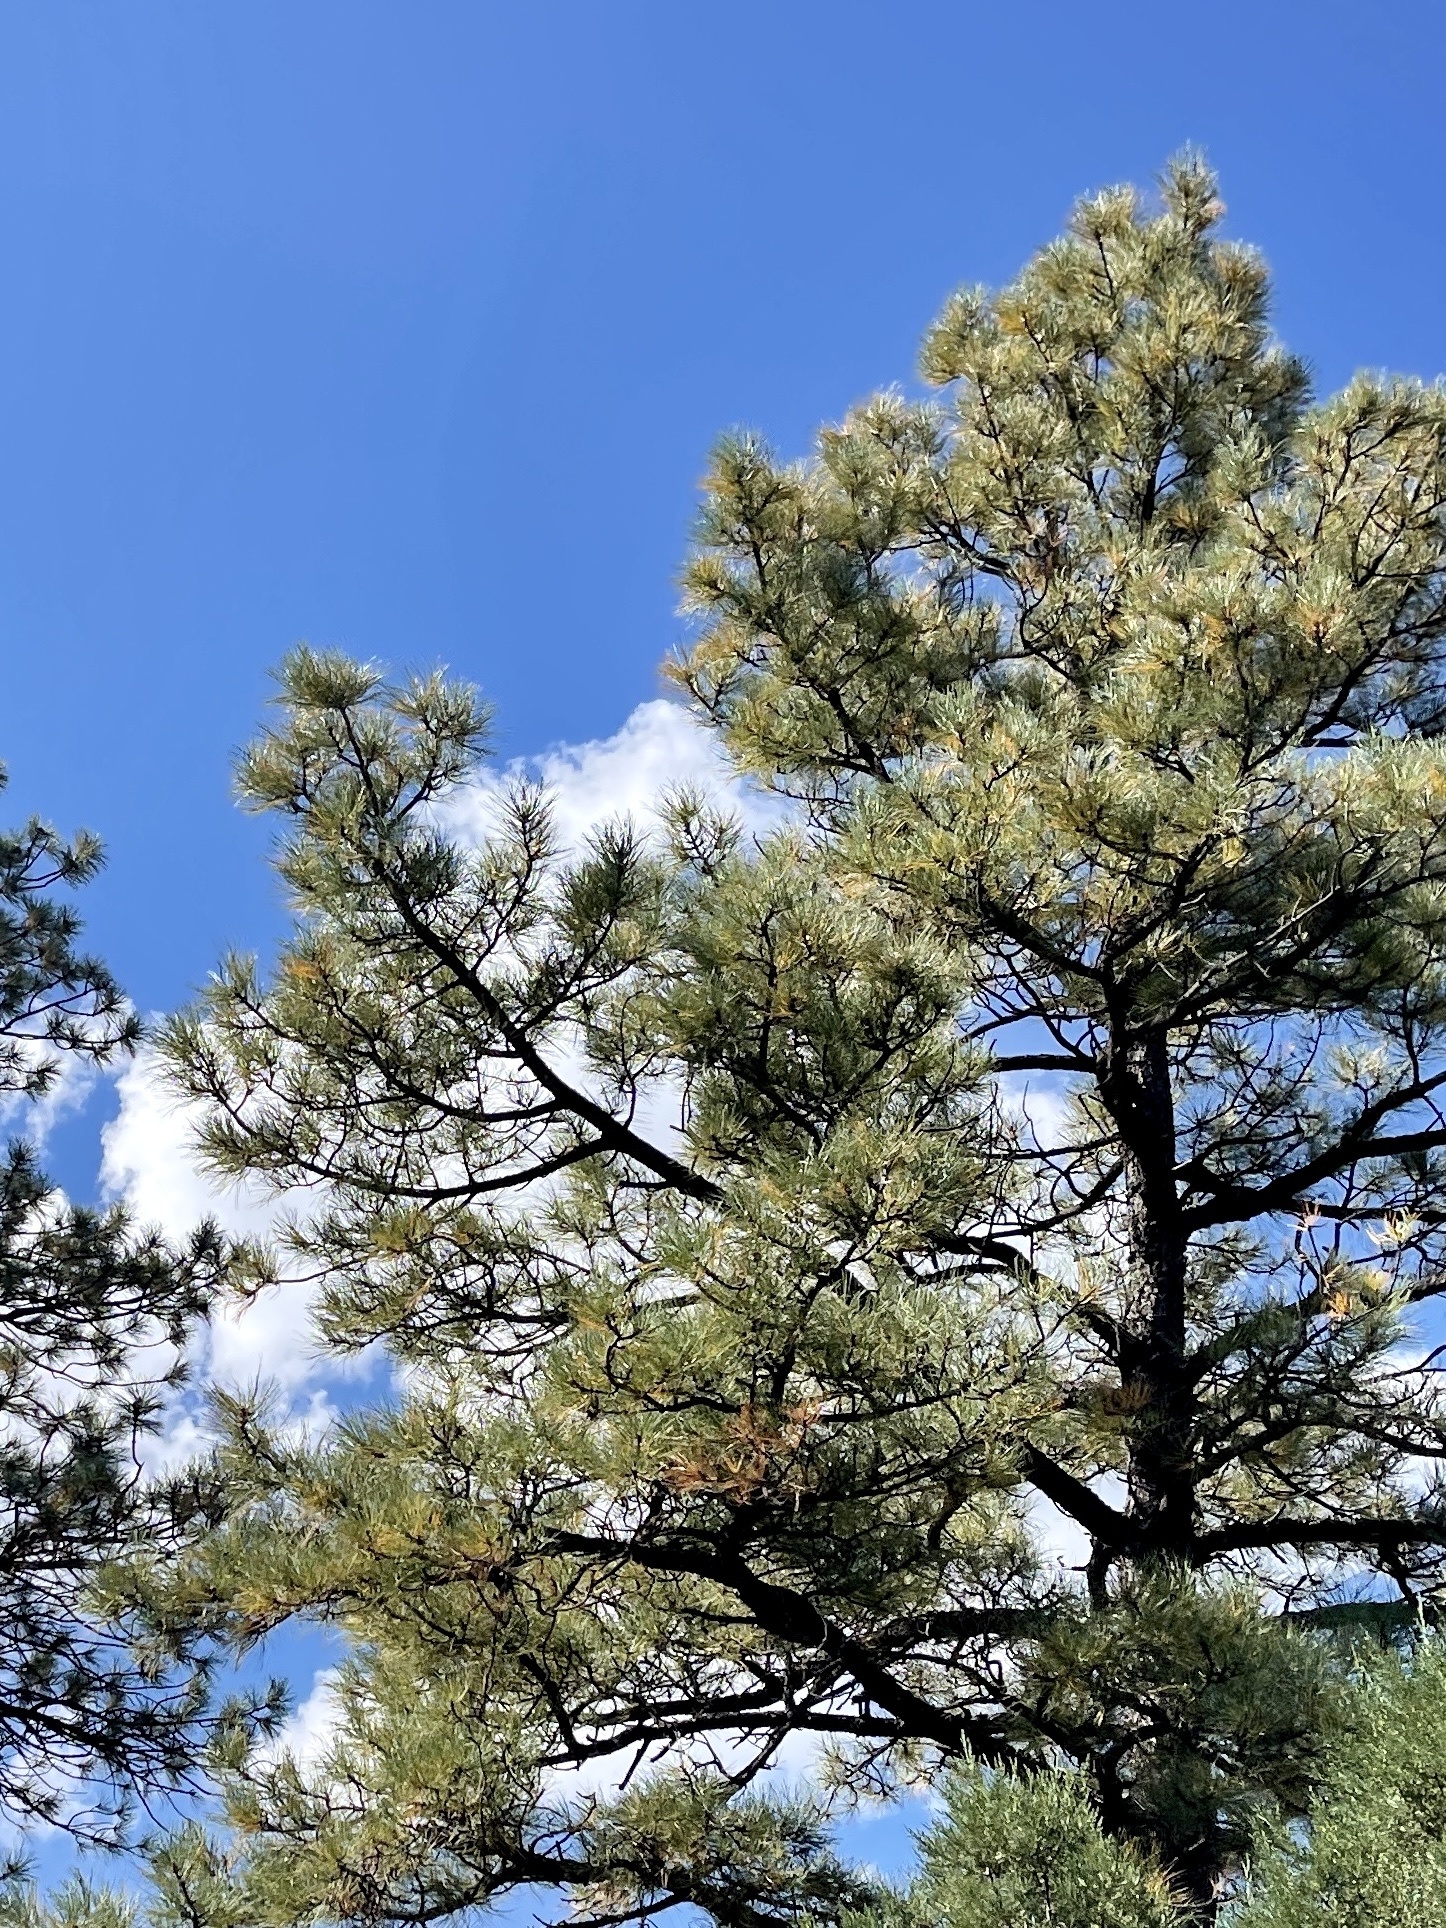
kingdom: Plantae
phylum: Tracheophyta
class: Pinopsida
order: Pinales
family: Pinaceae
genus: Pinus
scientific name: Pinus ponderosa
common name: Western yellow-pine
